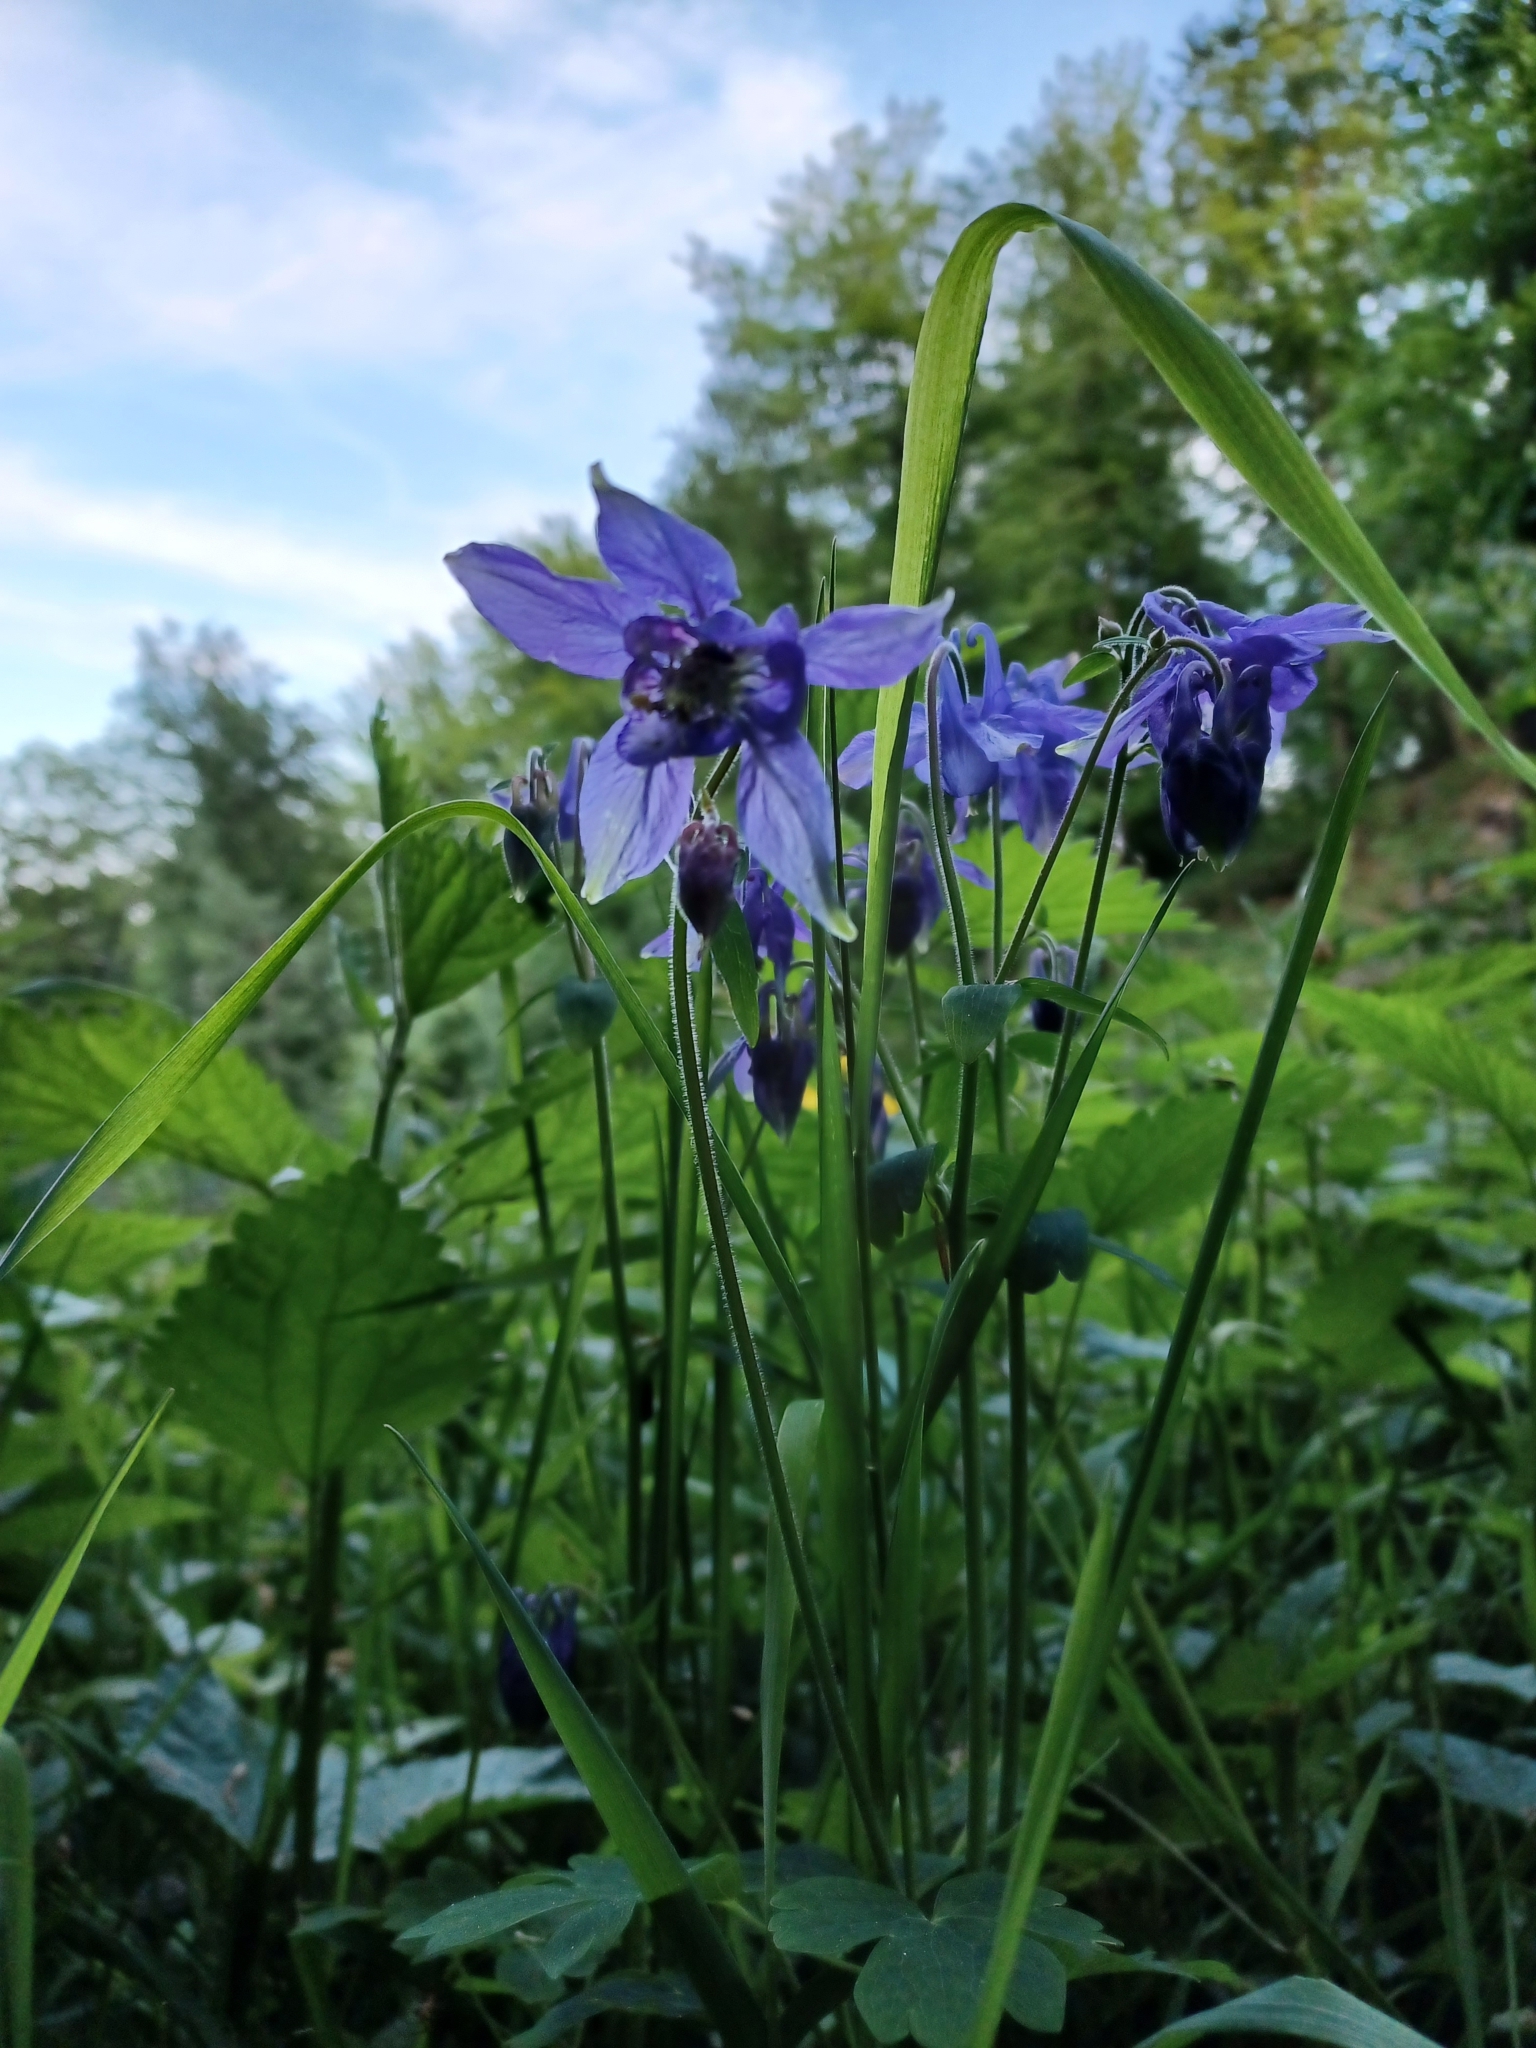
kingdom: Plantae
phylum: Tracheophyta
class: Magnoliopsida
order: Ranunculales
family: Ranunculaceae
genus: Aquilegia
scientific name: Aquilegia vulgaris
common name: Columbine
